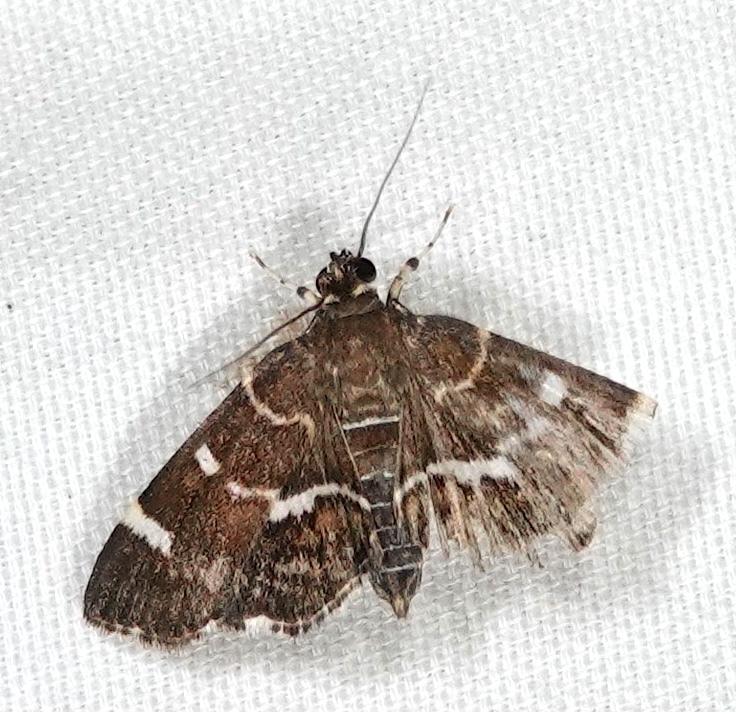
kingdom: Animalia
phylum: Arthropoda
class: Insecta
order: Lepidoptera
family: Crambidae
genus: Hymenia
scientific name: Hymenia perspectalis
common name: Spotted beet webworm
